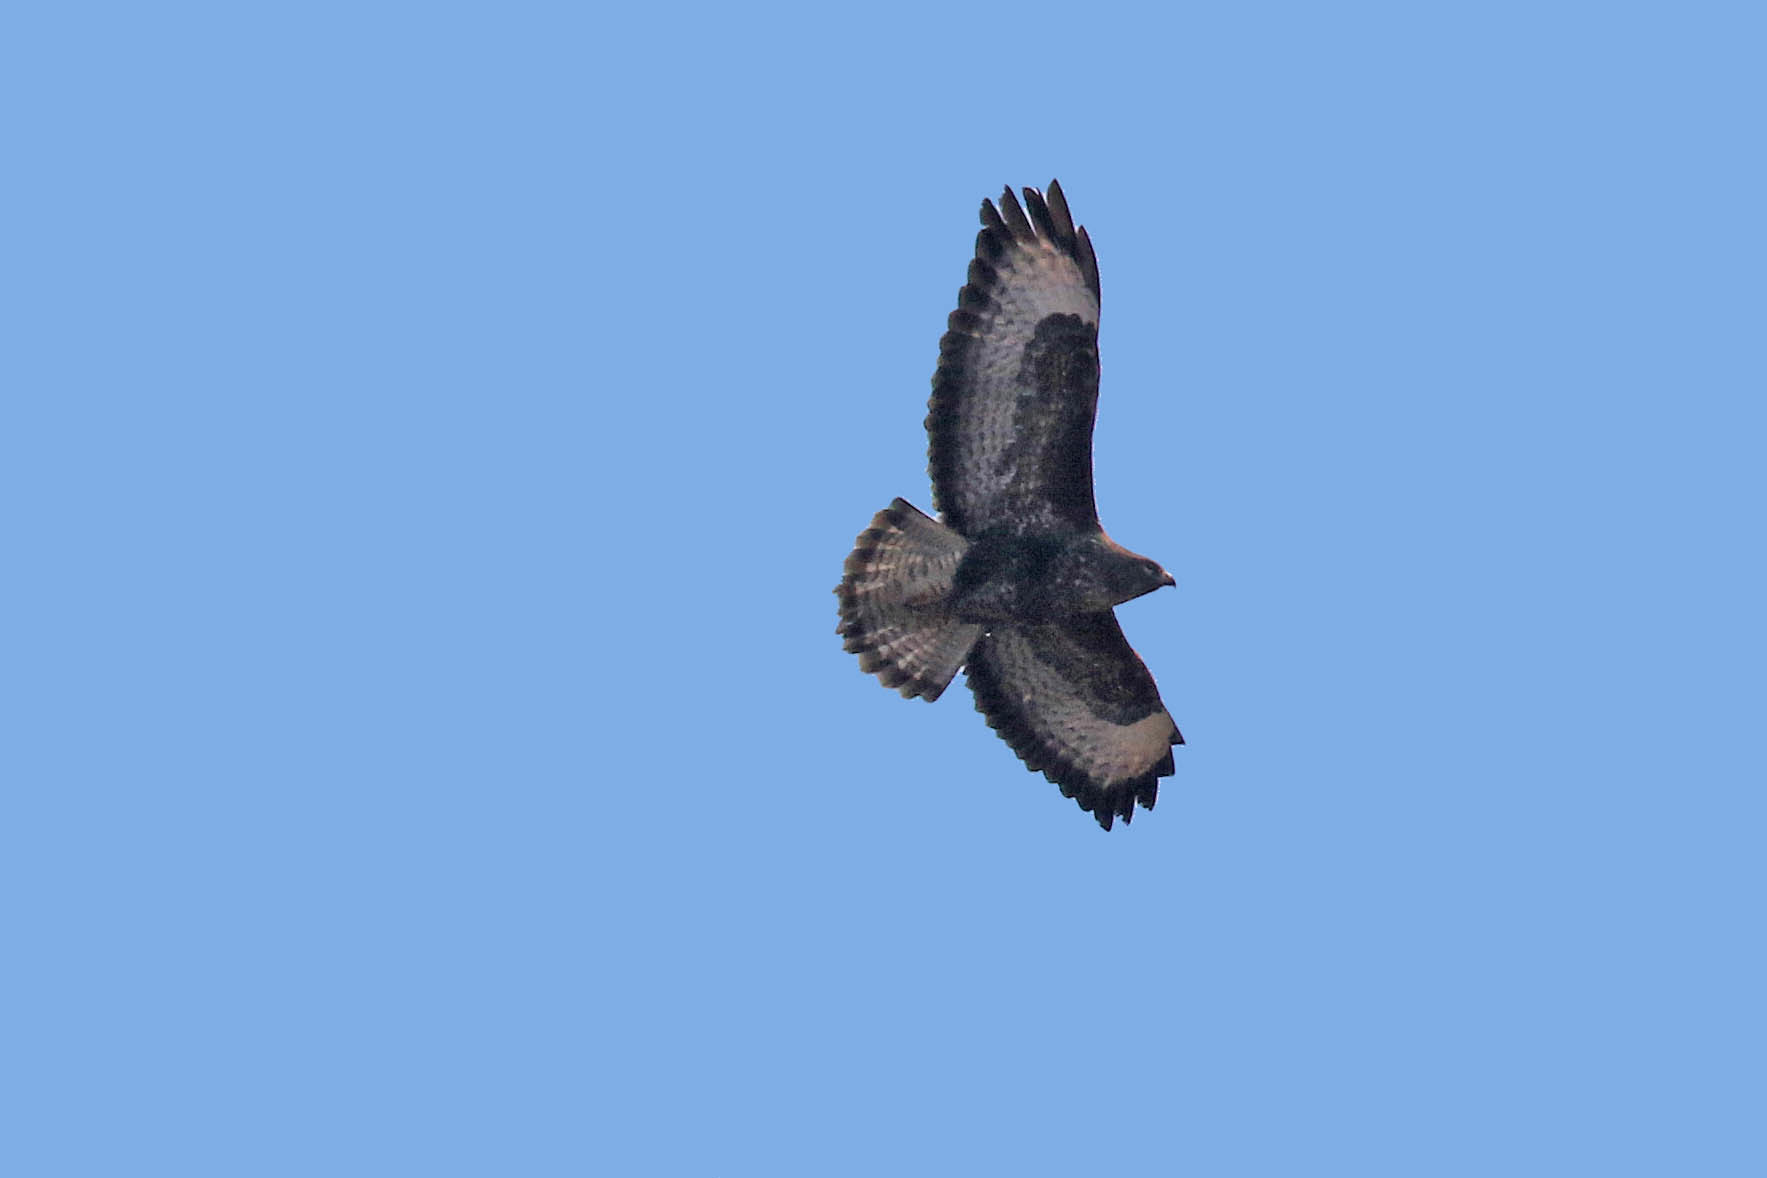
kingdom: Animalia
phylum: Chordata
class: Aves
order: Accipitriformes
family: Accipitridae
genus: Buteo
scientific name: Buteo buteo
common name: Common buzzard
